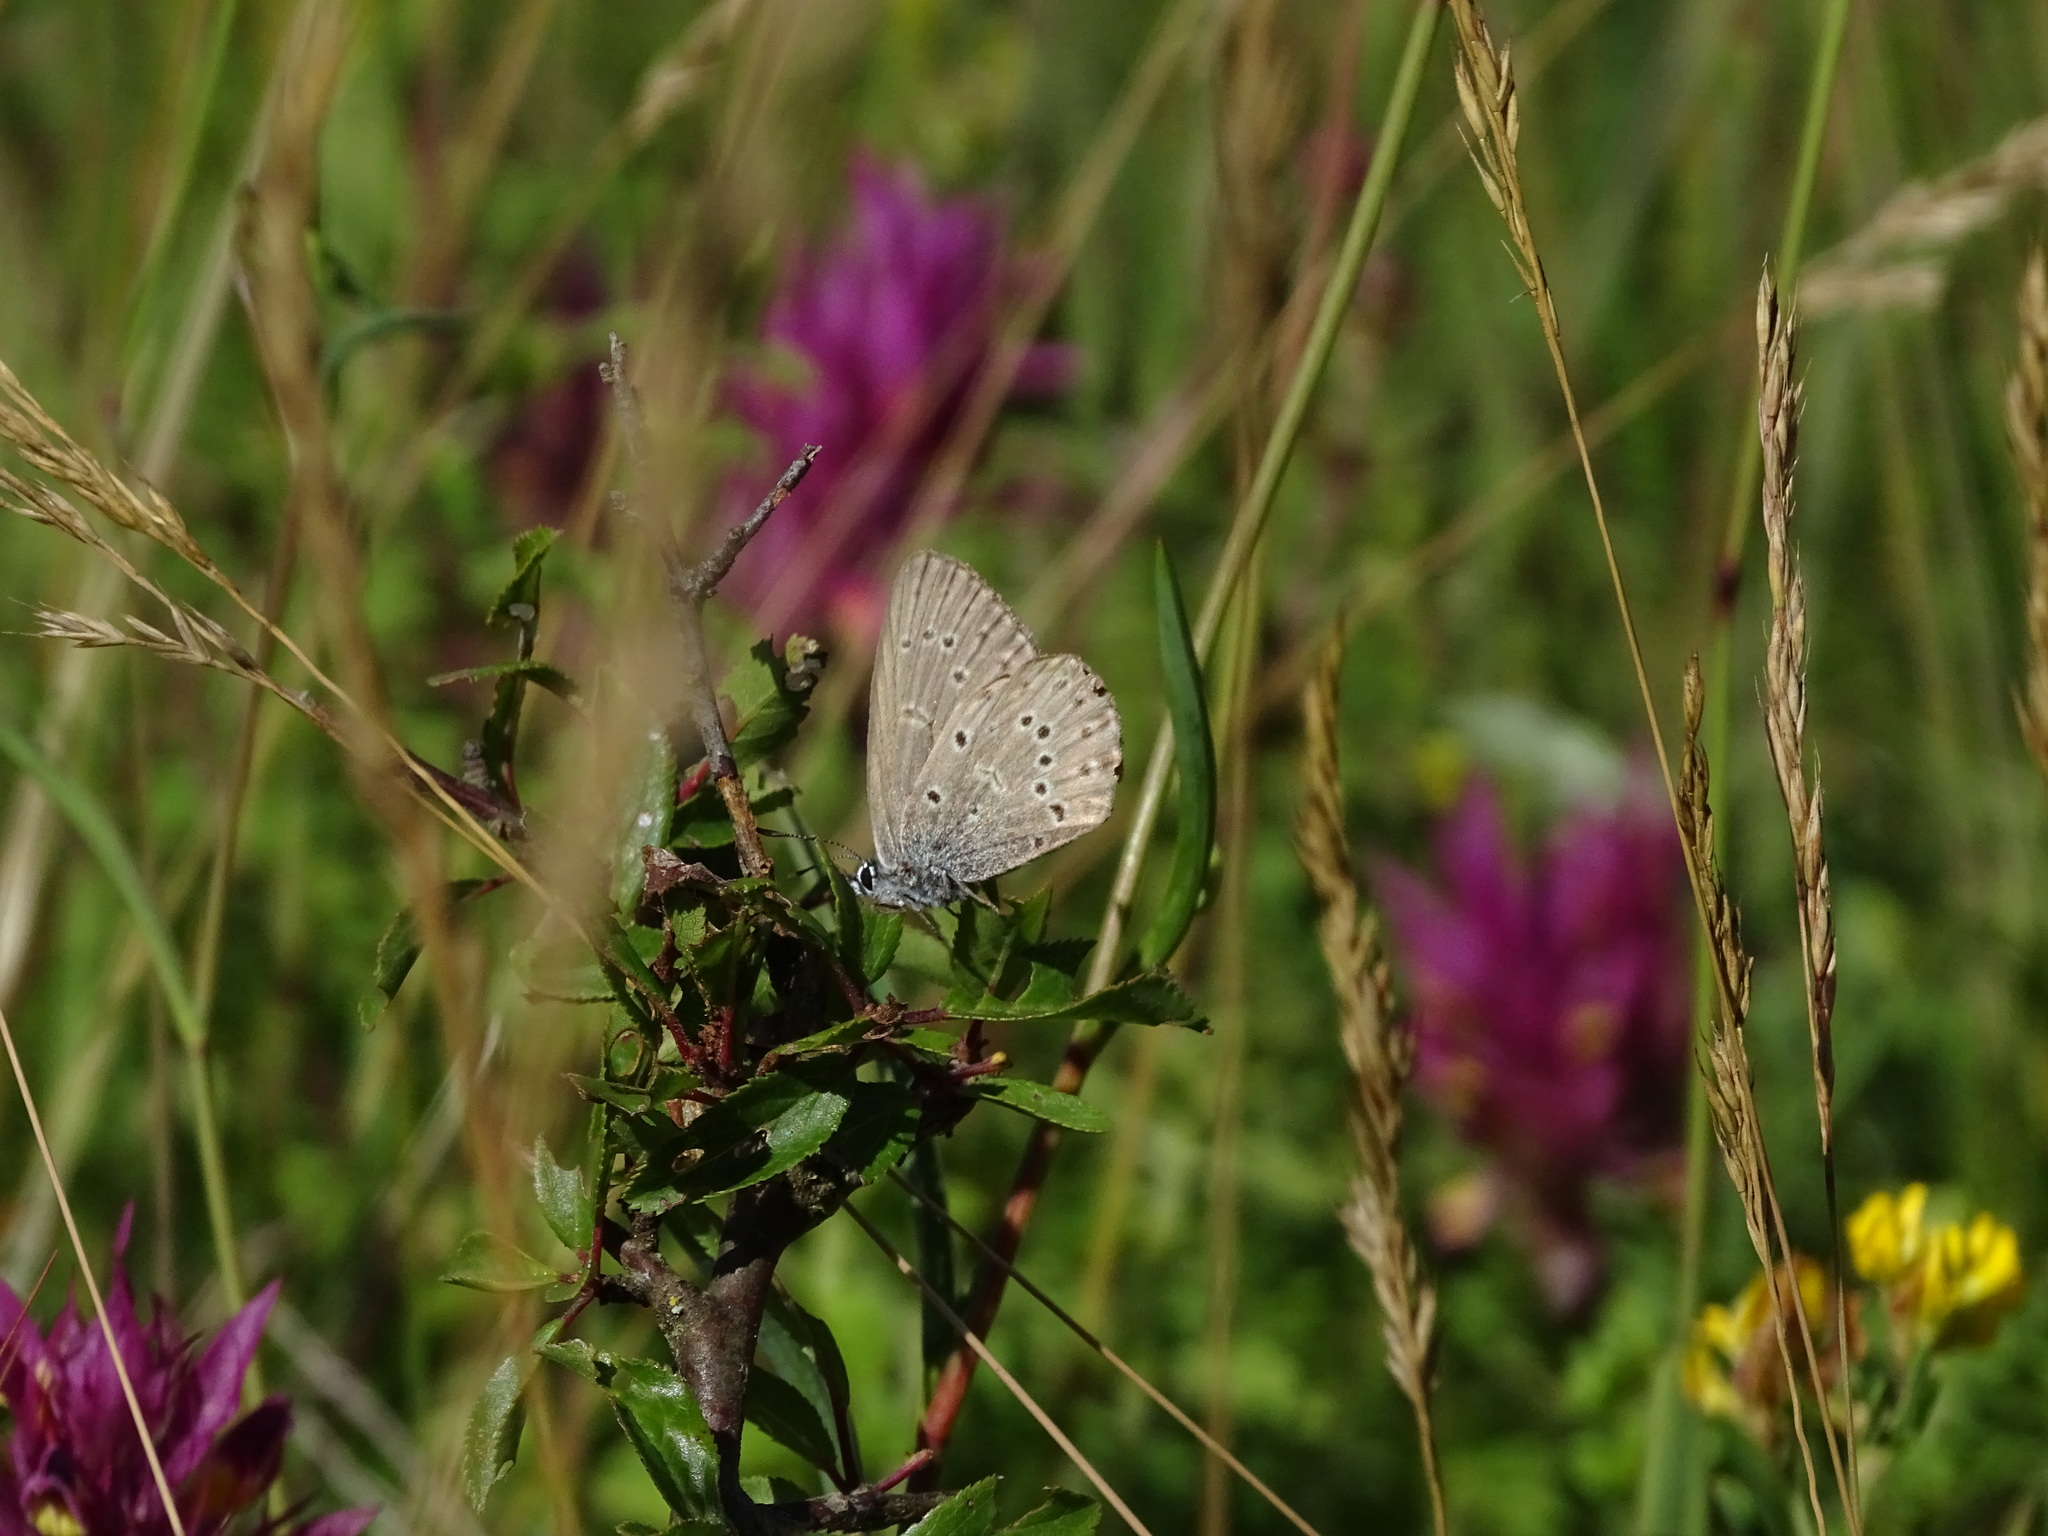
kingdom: Animalia
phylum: Arthropoda
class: Insecta
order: Lepidoptera
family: Lycaenidae
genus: Maculinea
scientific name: Maculinea alcon
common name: Alcon blue
